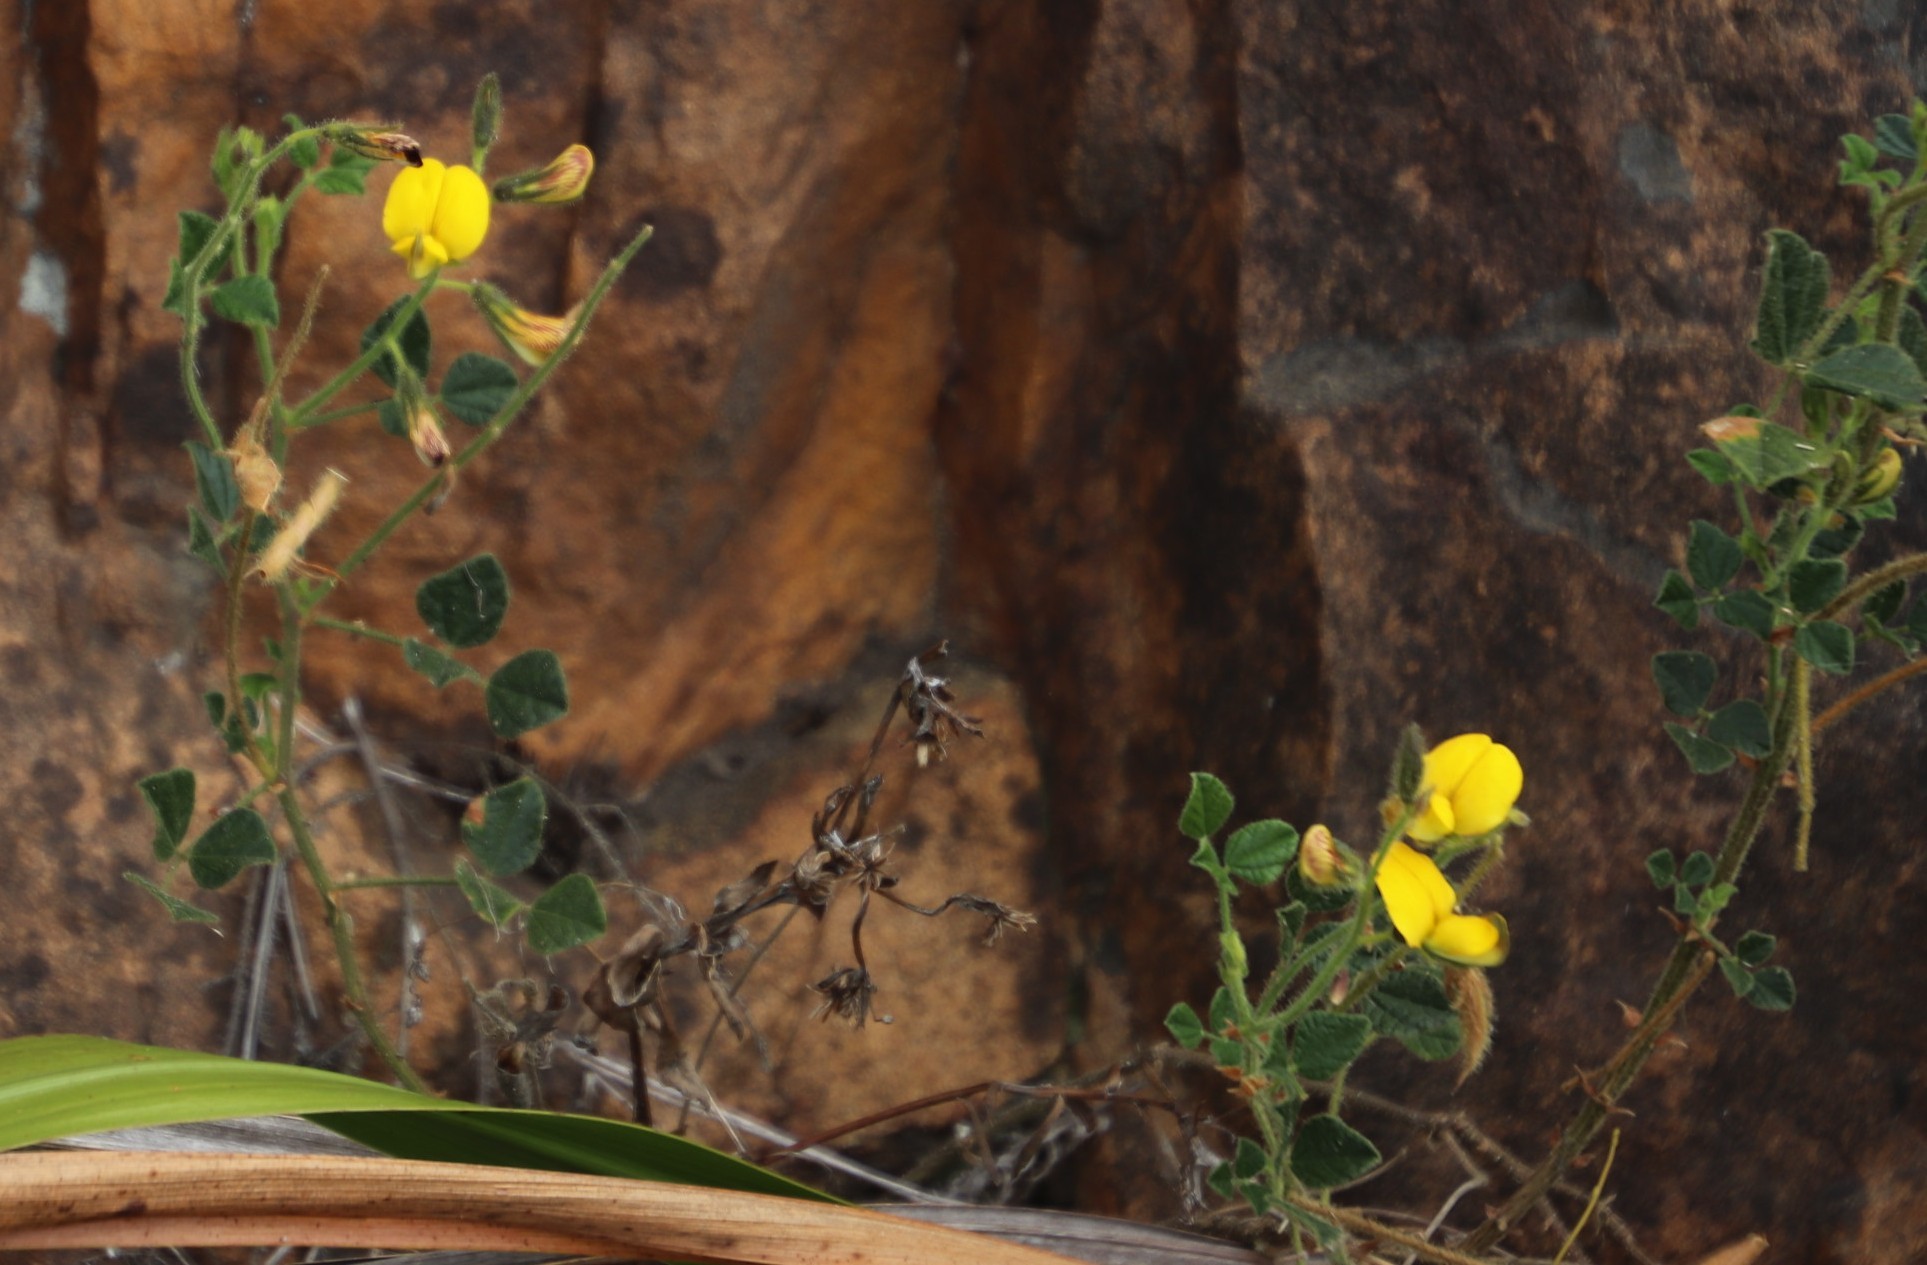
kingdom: Plantae
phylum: Tracheophyta
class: Magnoliopsida
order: Fabales
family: Fabaceae
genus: Bolusafra
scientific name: Bolusafra bituminosa
